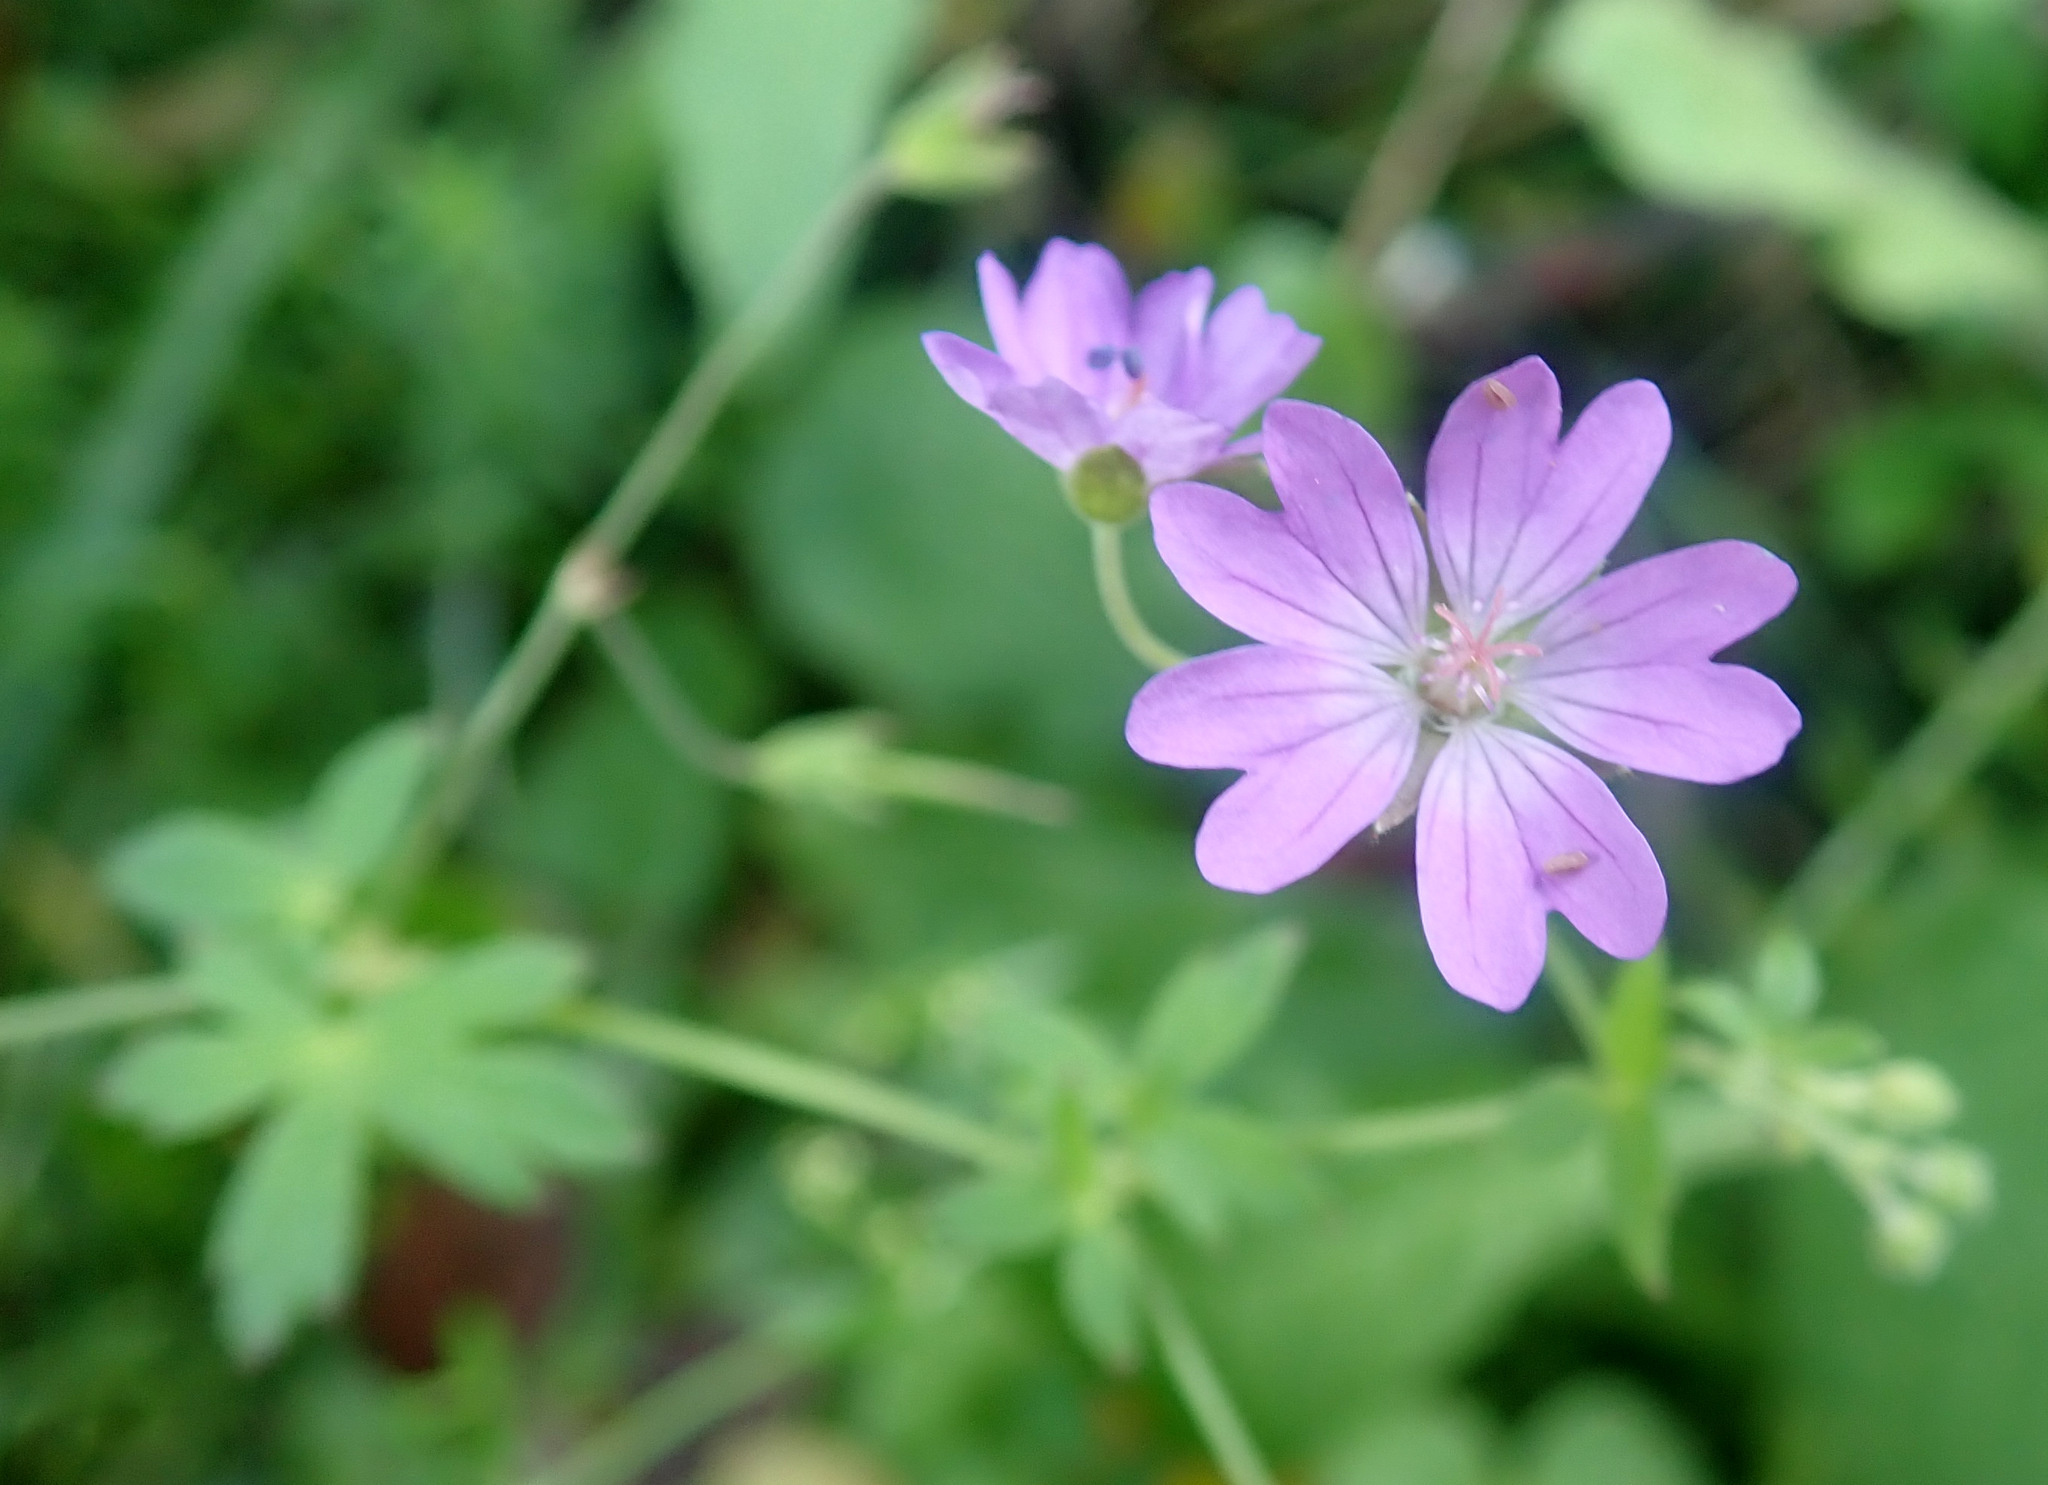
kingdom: Plantae
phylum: Tracheophyta
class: Magnoliopsida
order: Geraniales
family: Geraniaceae
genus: Geranium
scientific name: Geranium pyrenaicum
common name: Hedgerow crane's-bill
